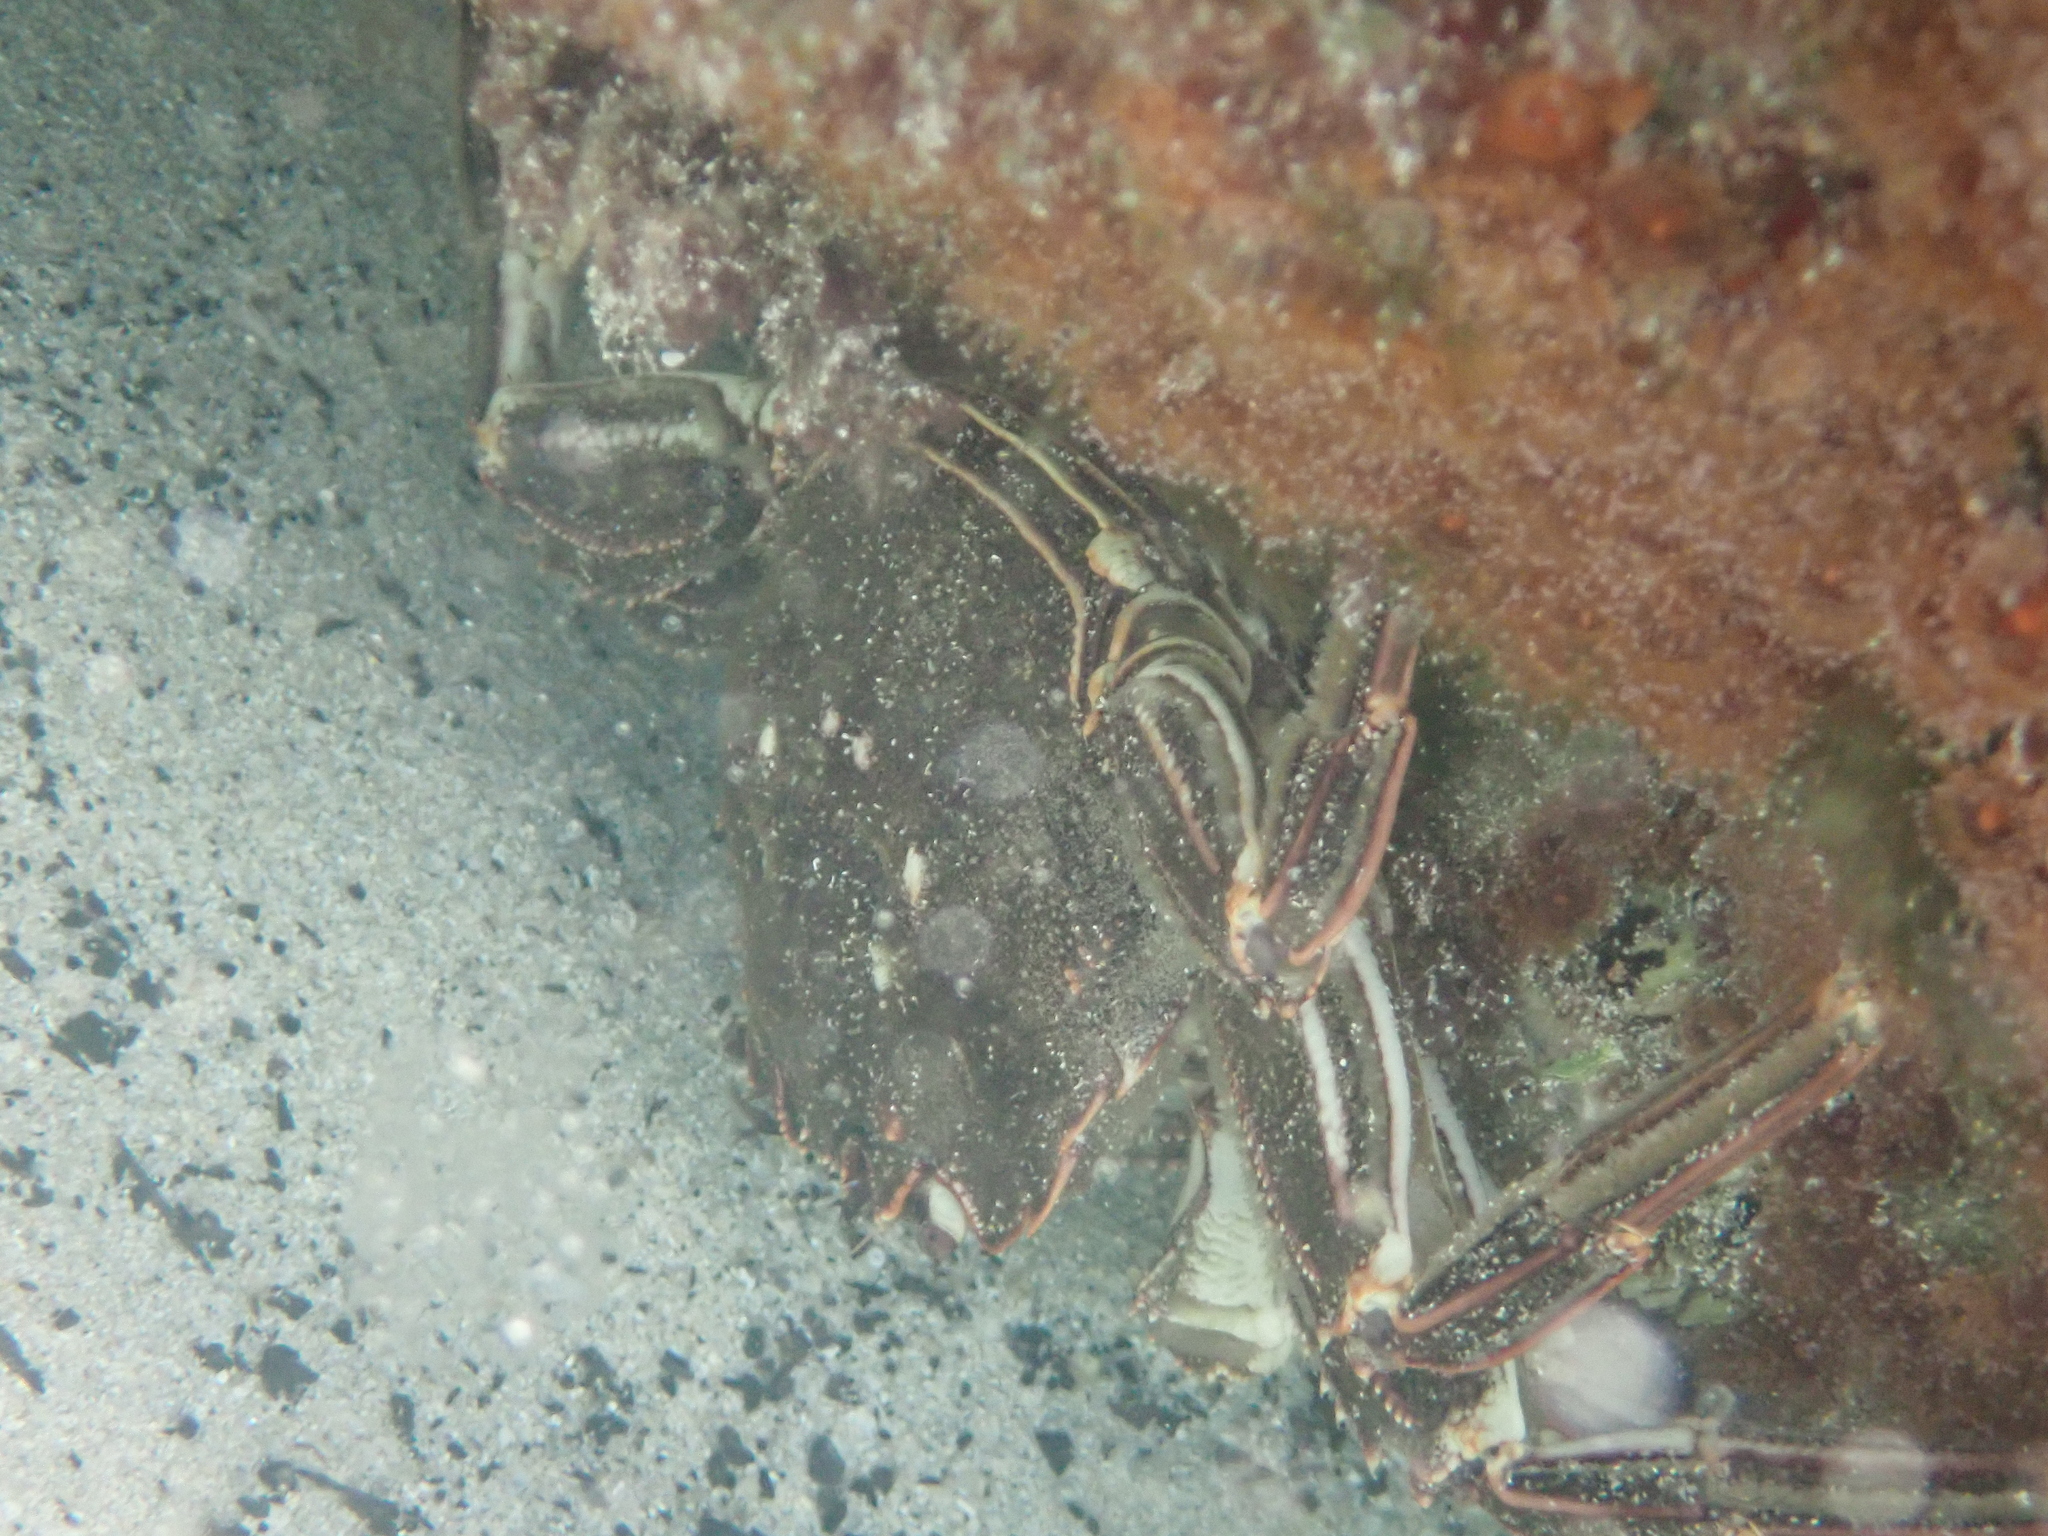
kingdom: Animalia
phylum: Arthropoda
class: Malacostraca
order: Decapoda
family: Plagusiidae
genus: Guinusia
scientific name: Guinusia chabrus
